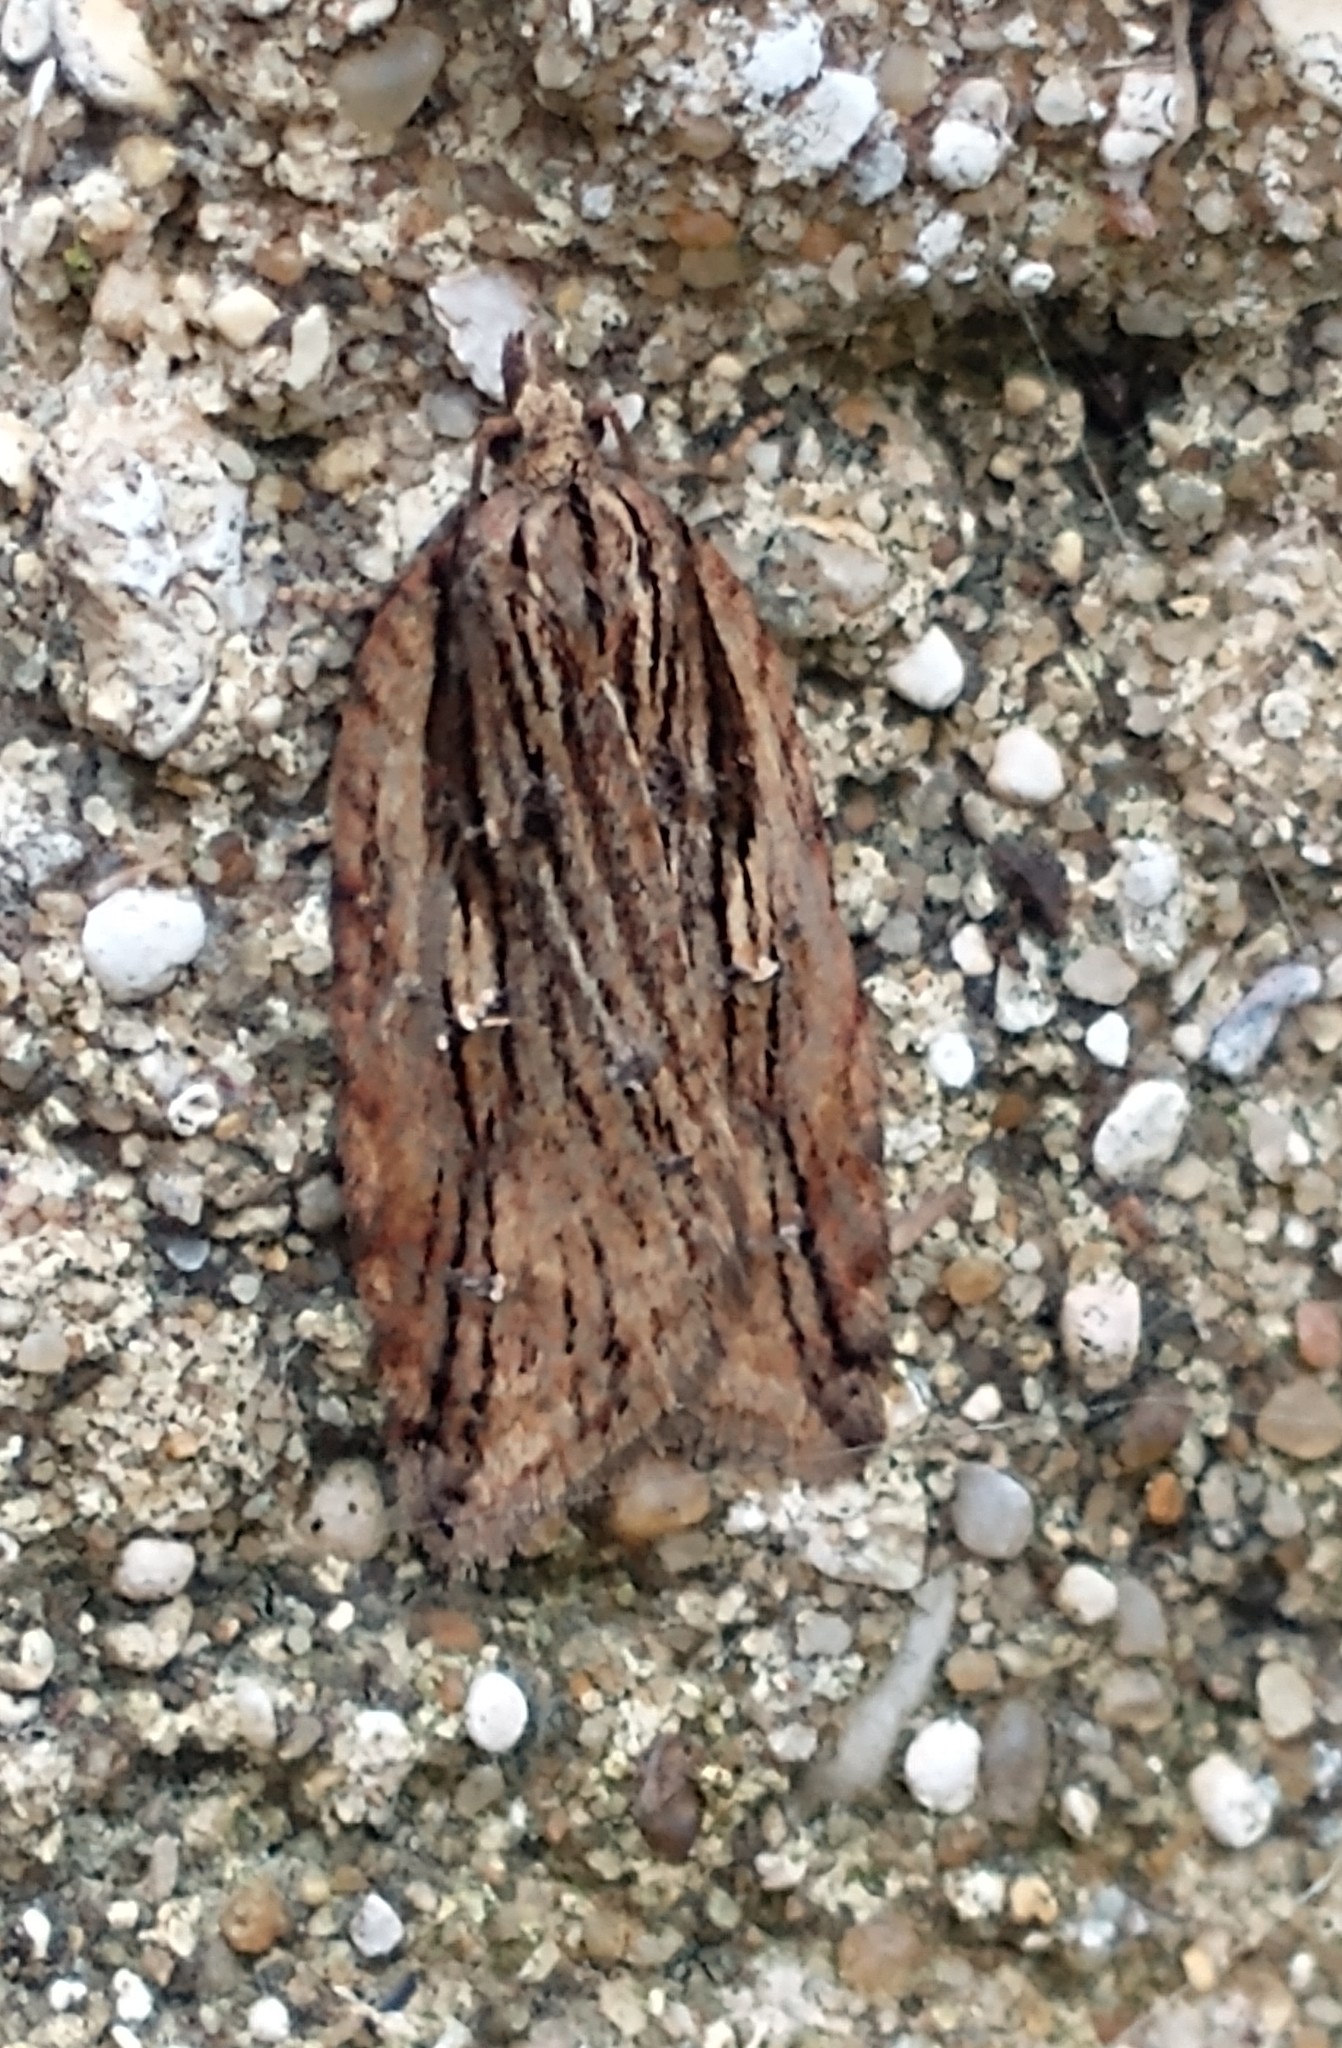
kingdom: Animalia
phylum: Arthropoda
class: Insecta
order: Lepidoptera
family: Tortricidae
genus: Acleris
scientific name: Acleris umbrana
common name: Dark-streaked button
